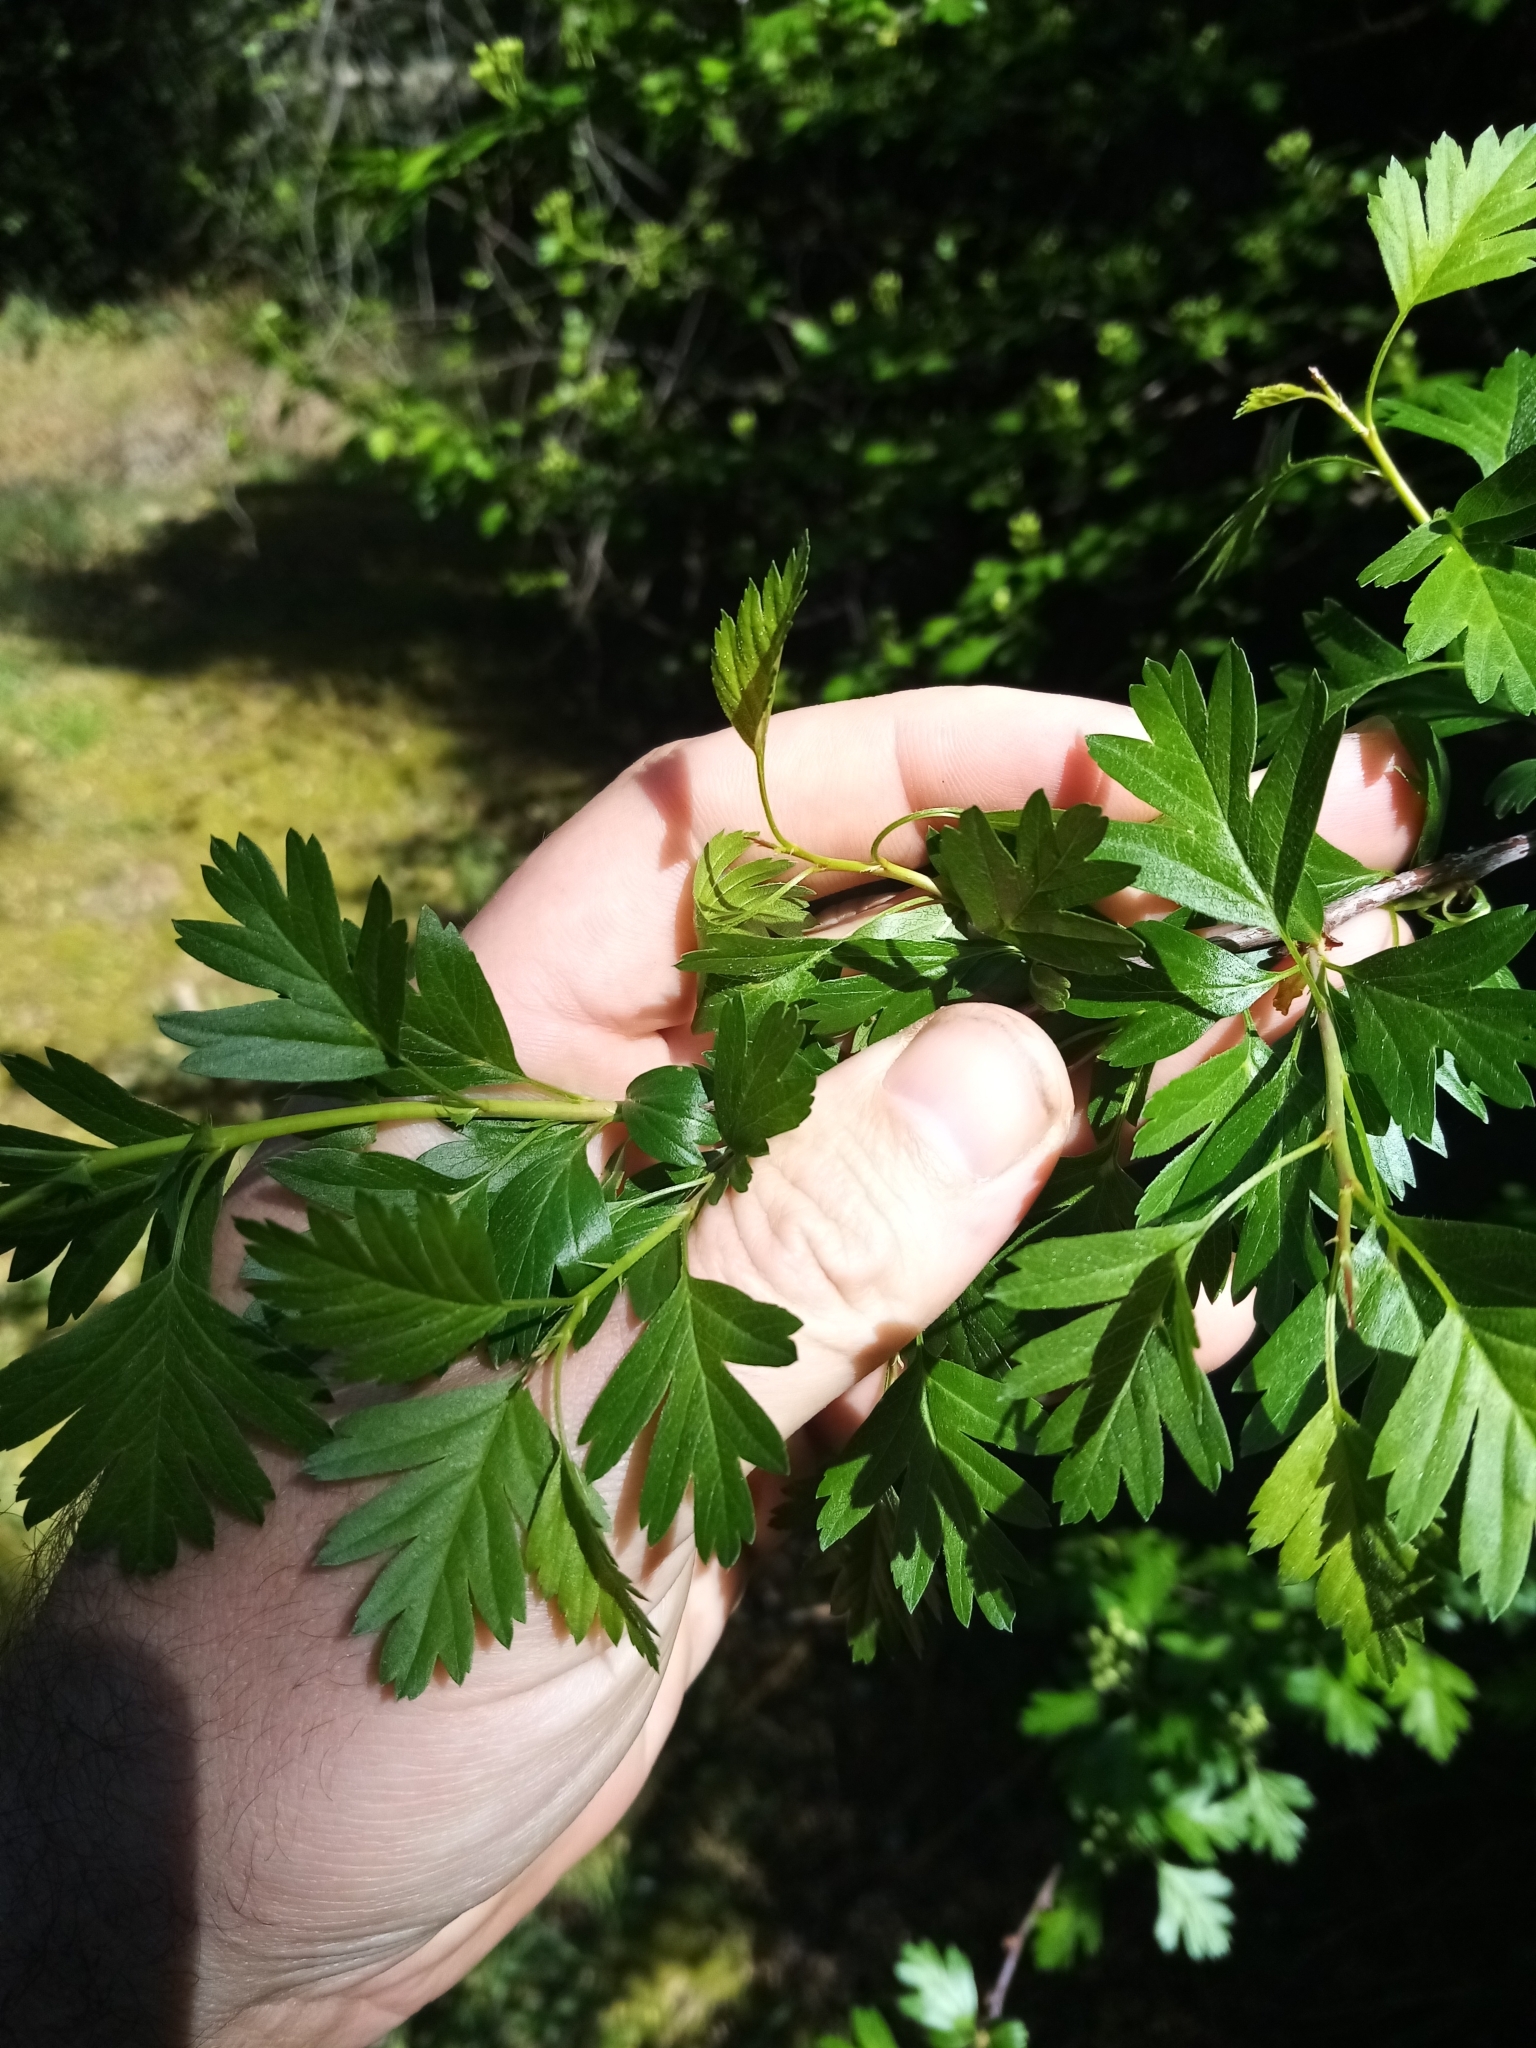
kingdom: Plantae
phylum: Tracheophyta
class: Magnoliopsida
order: Rosales
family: Rosaceae
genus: Crataegus
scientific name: Crataegus monogyna
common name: Hawthorn
